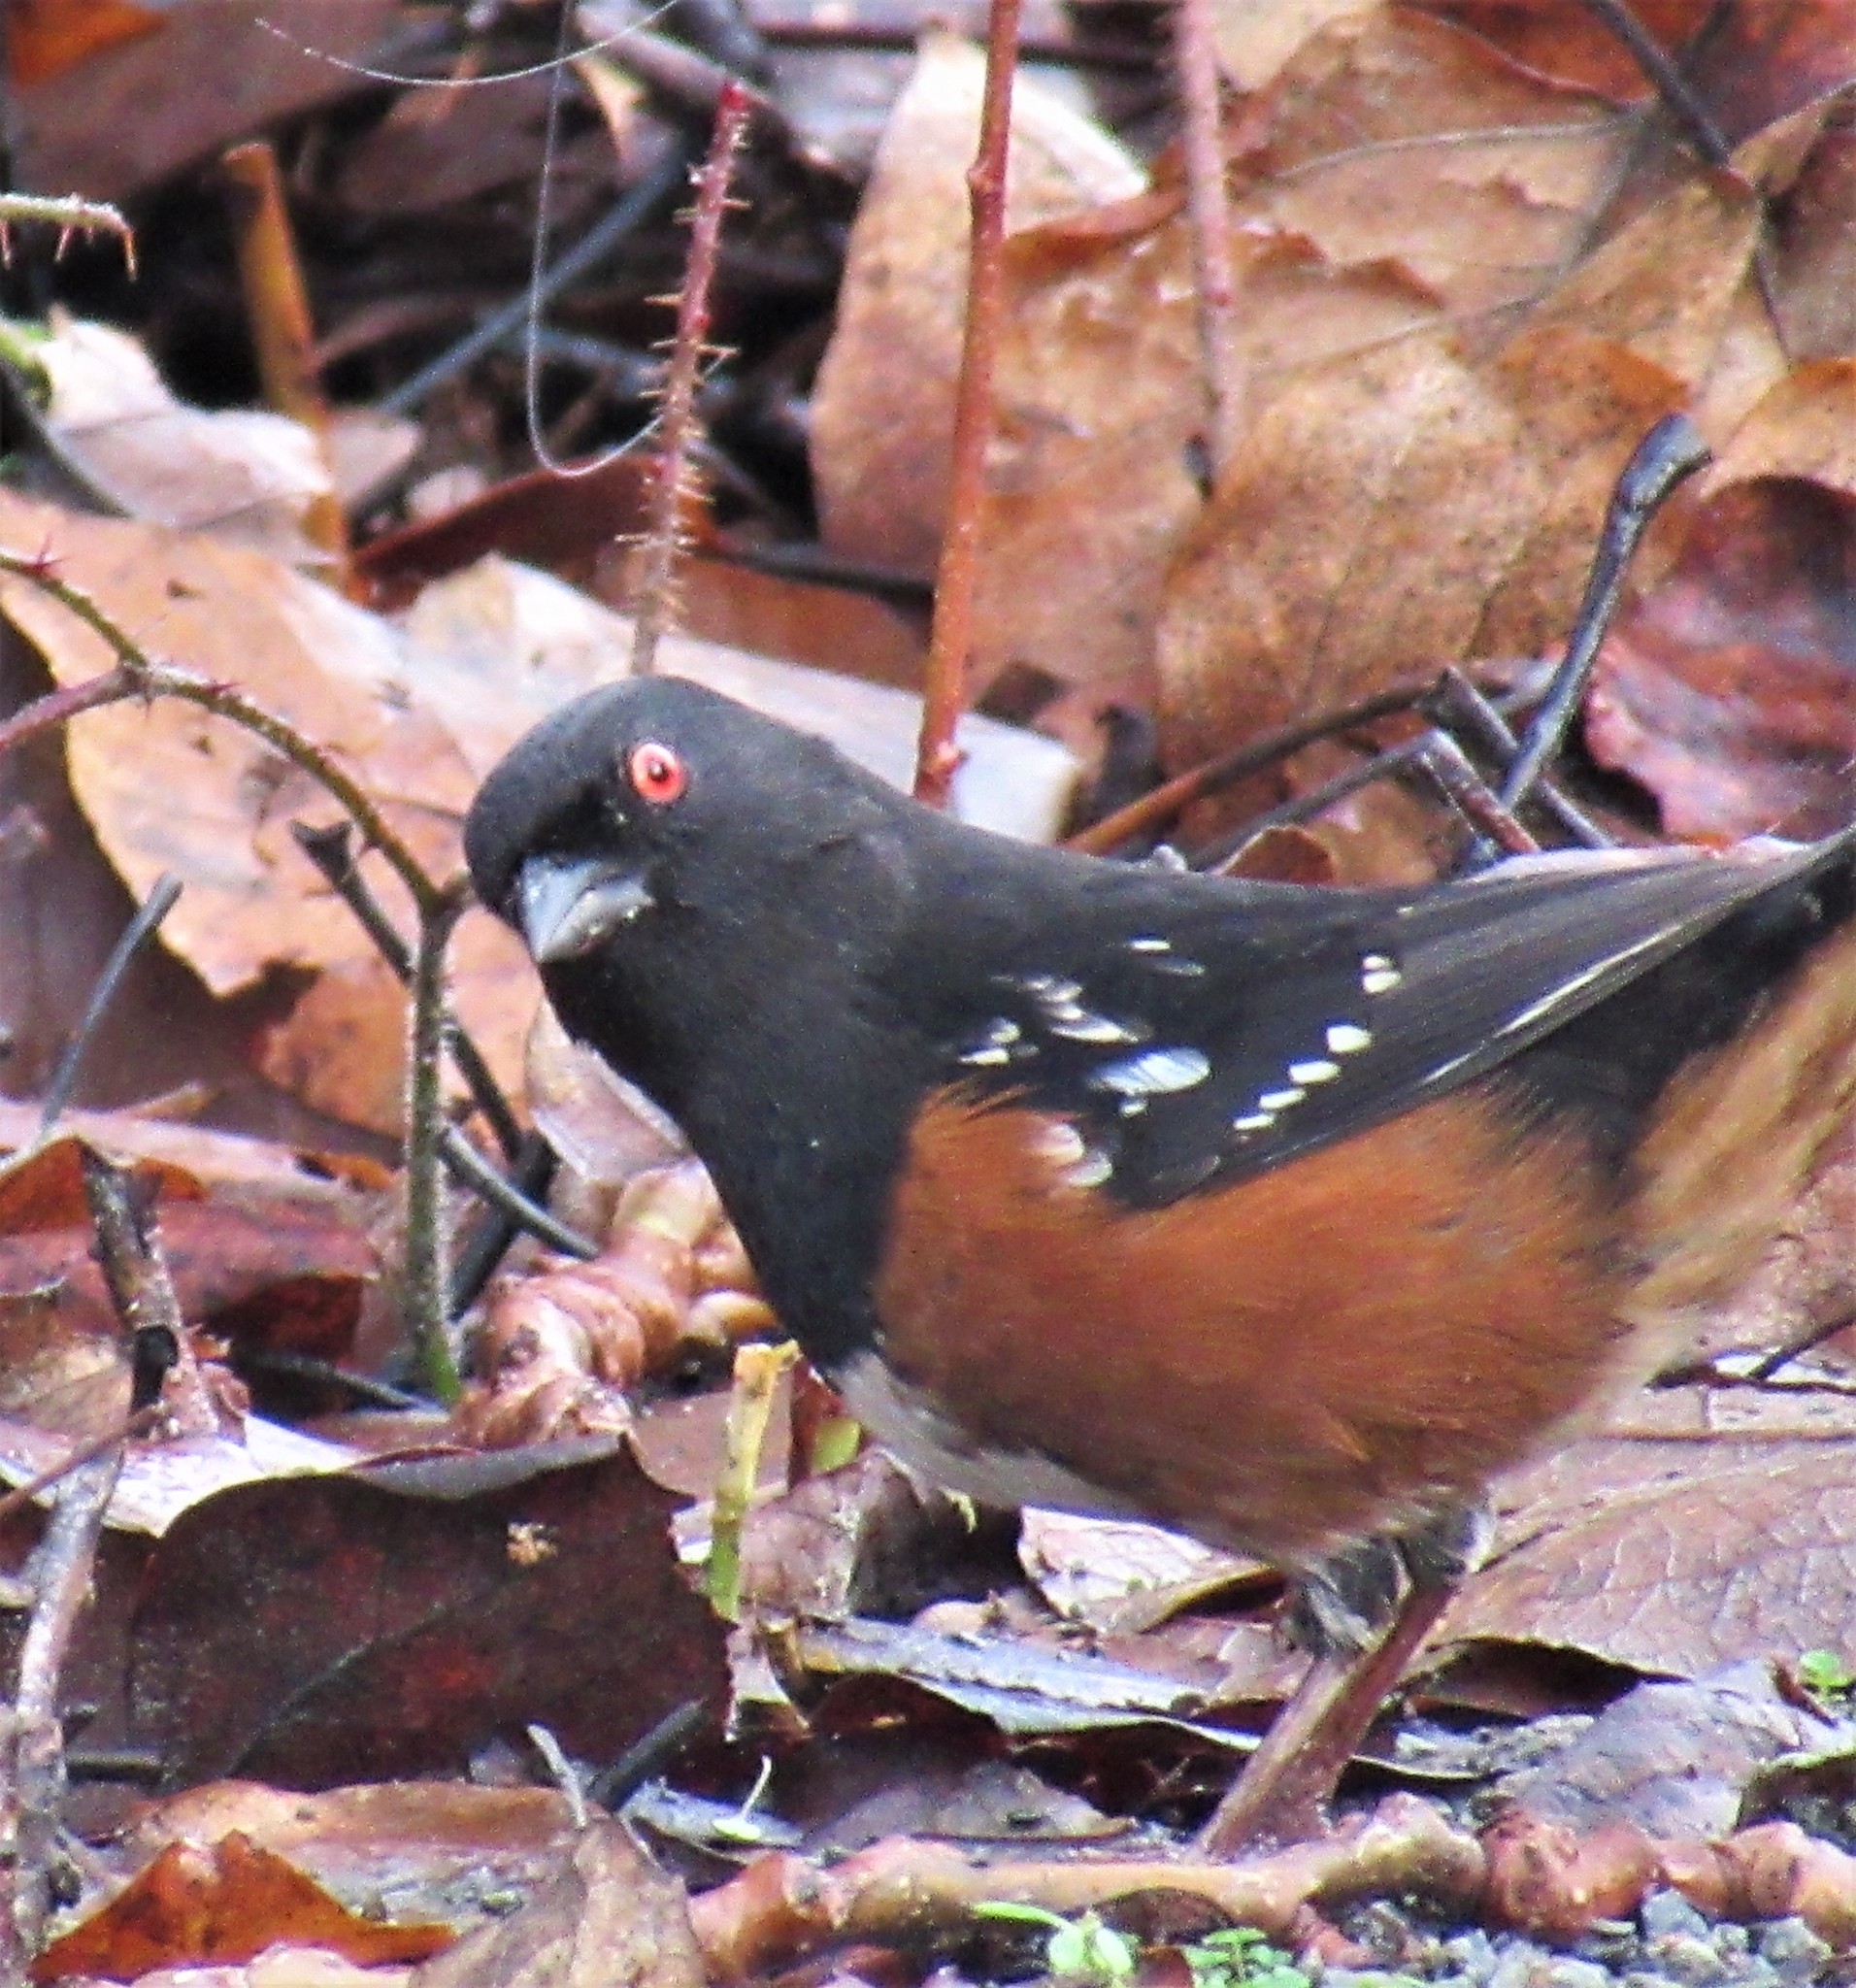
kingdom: Animalia
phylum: Chordata
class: Aves
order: Passeriformes
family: Passerellidae
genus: Pipilo
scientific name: Pipilo maculatus
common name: Spotted towhee
